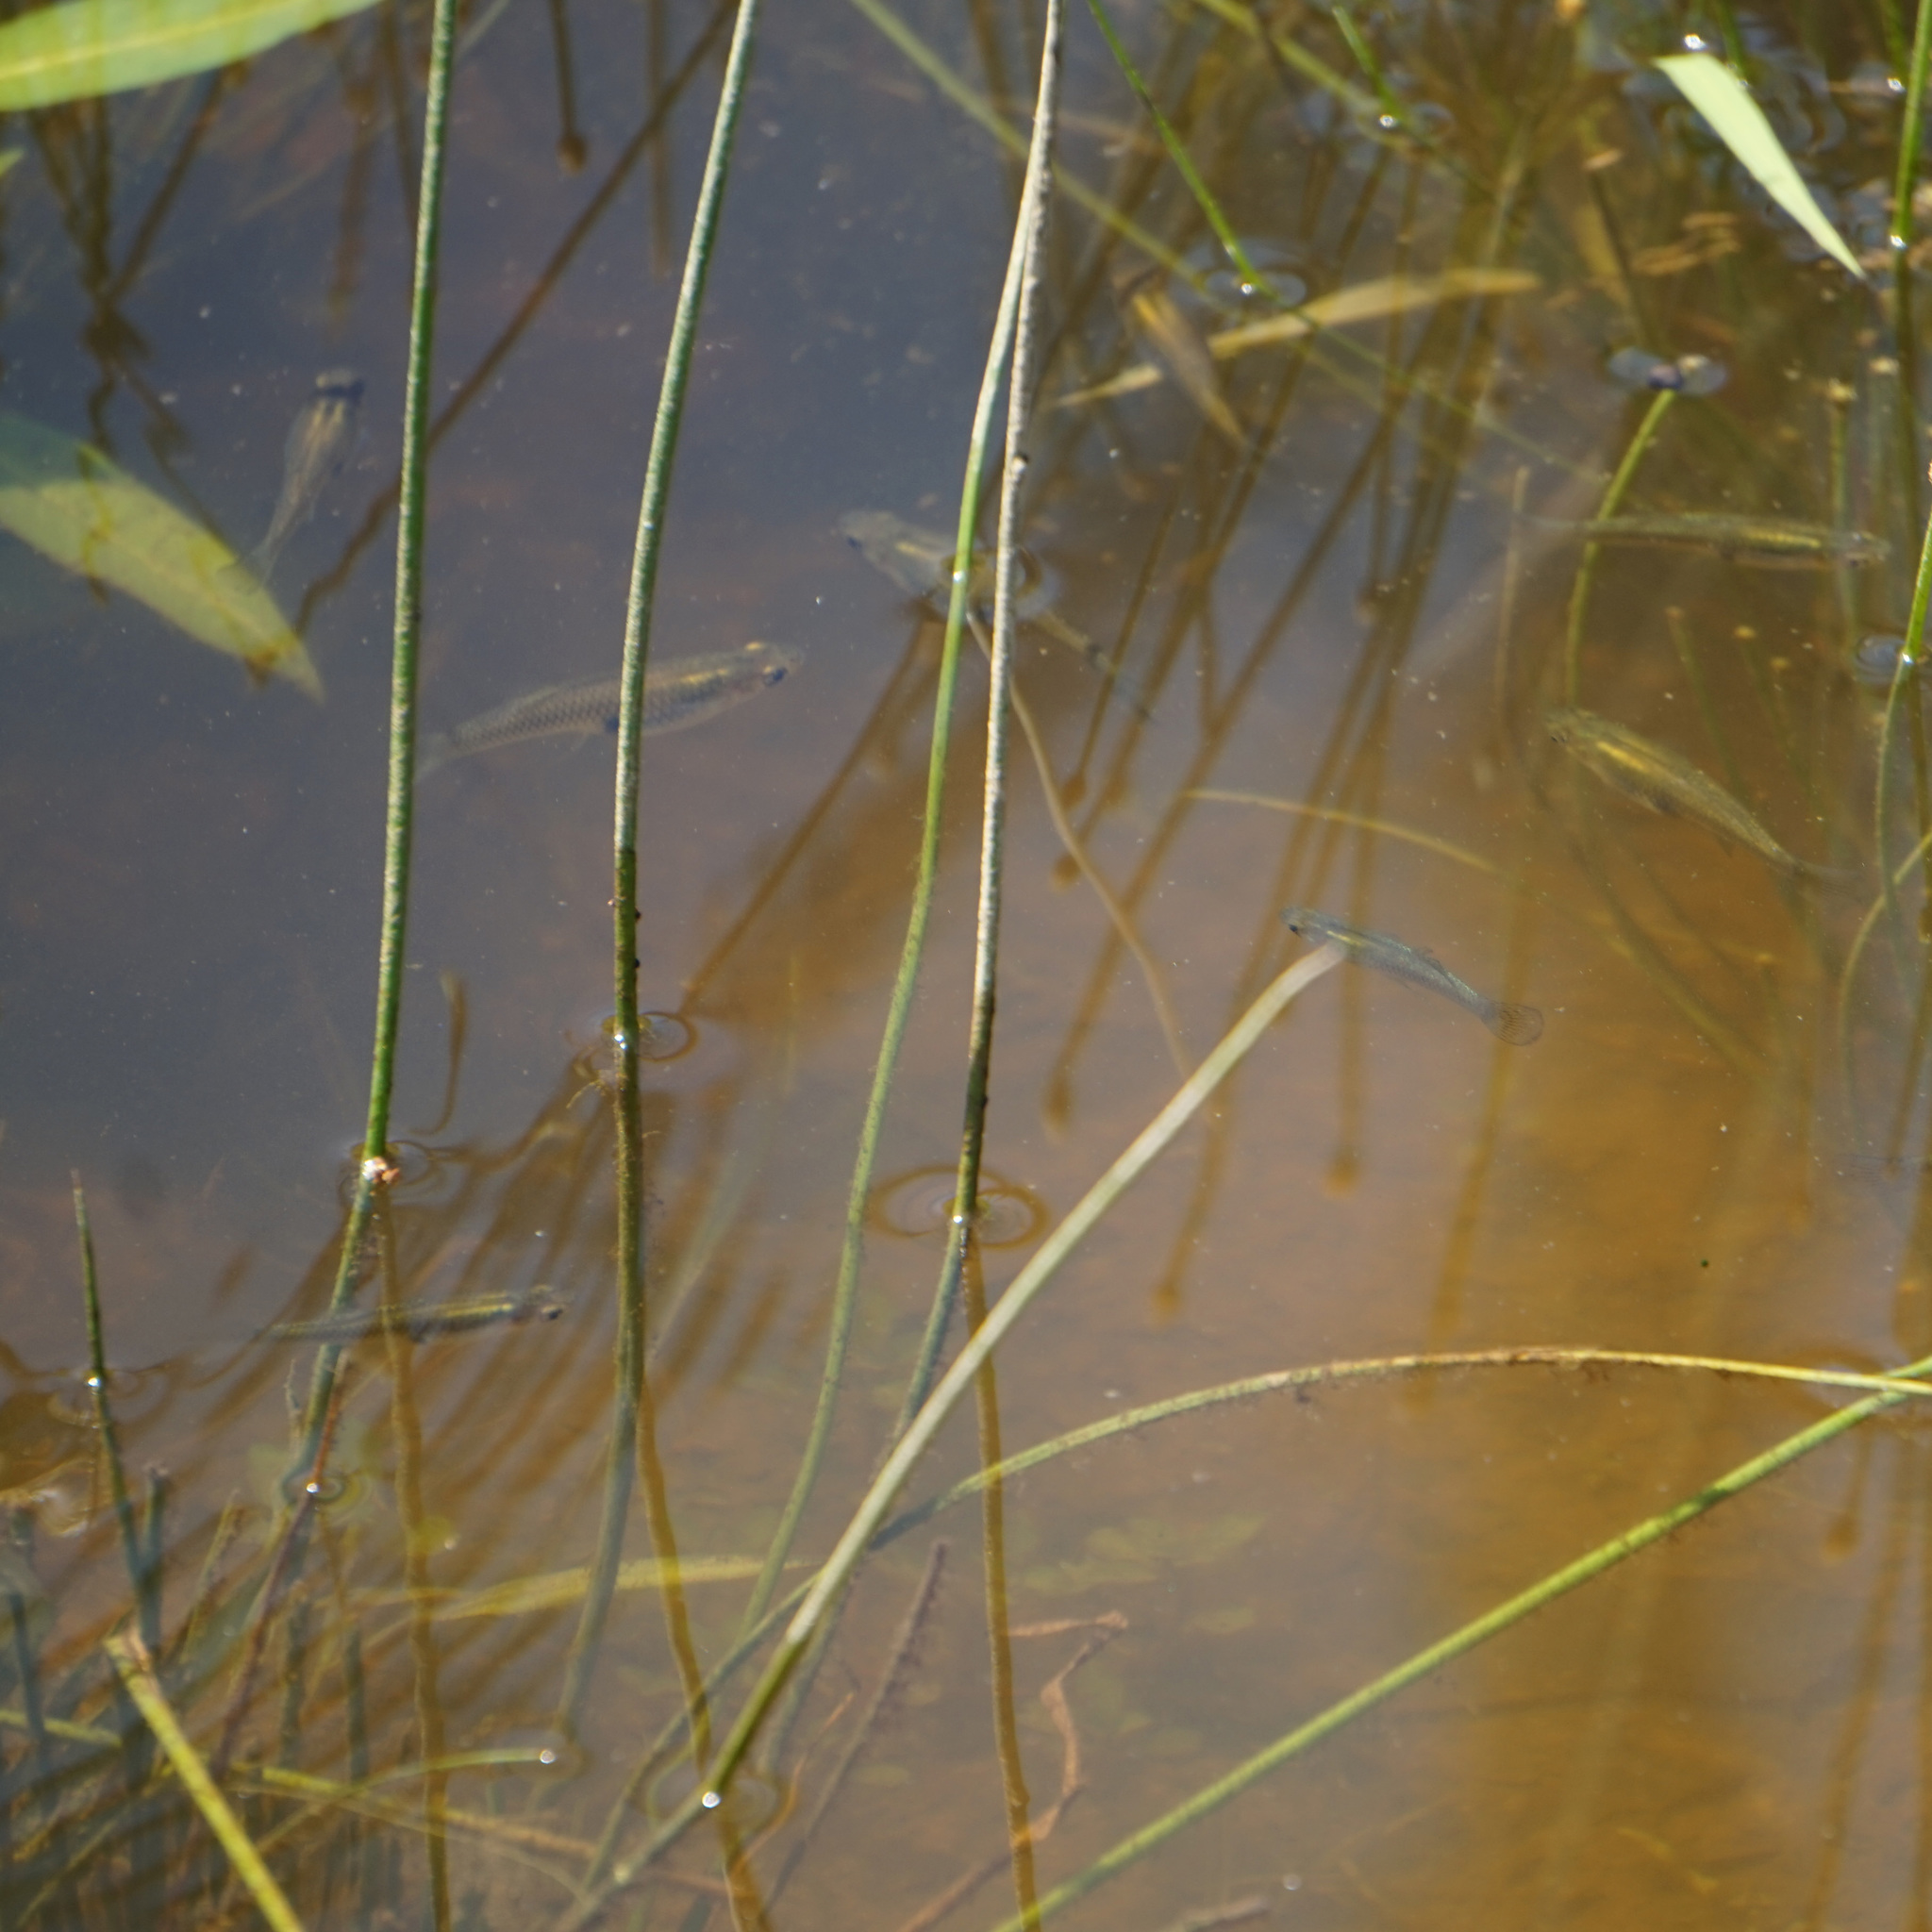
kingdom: Animalia
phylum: Chordata
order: Cyprinodontiformes
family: Poeciliidae
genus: Gambusia
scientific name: Gambusia holbrooki
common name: Eastern mosquitofish
